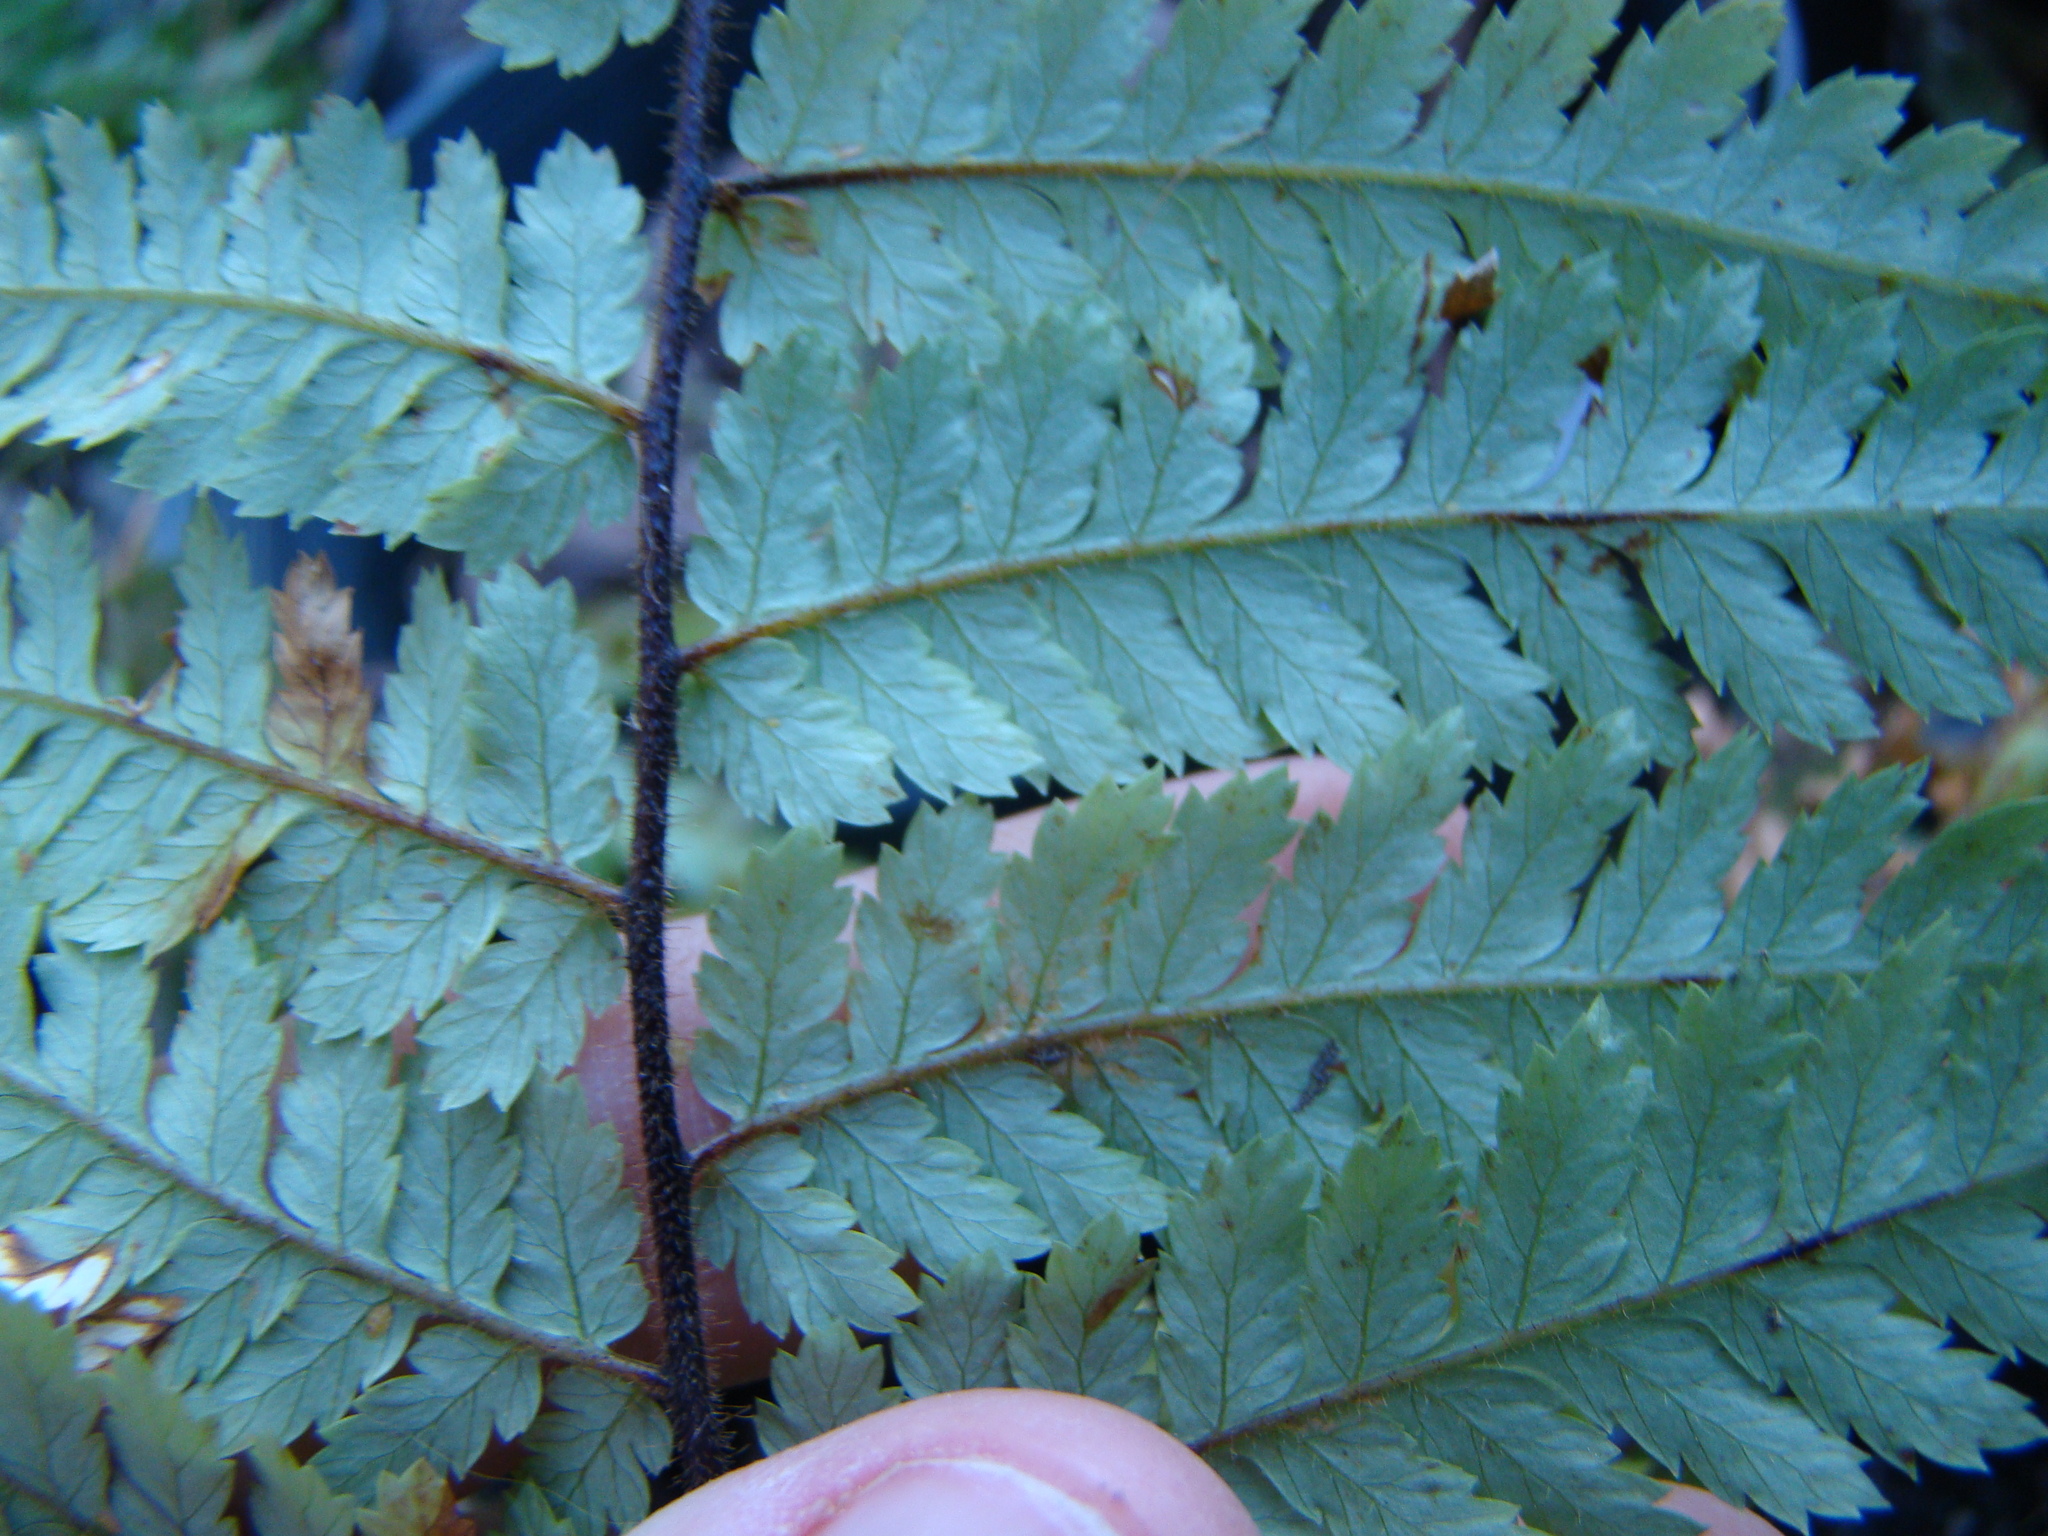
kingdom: Plantae
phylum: Tracheophyta
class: Polypodiopsida
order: Cyatheales
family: Dicksoniaceae
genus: Dicksonia
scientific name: Dicksonia squarrosa
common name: Hard treefern
